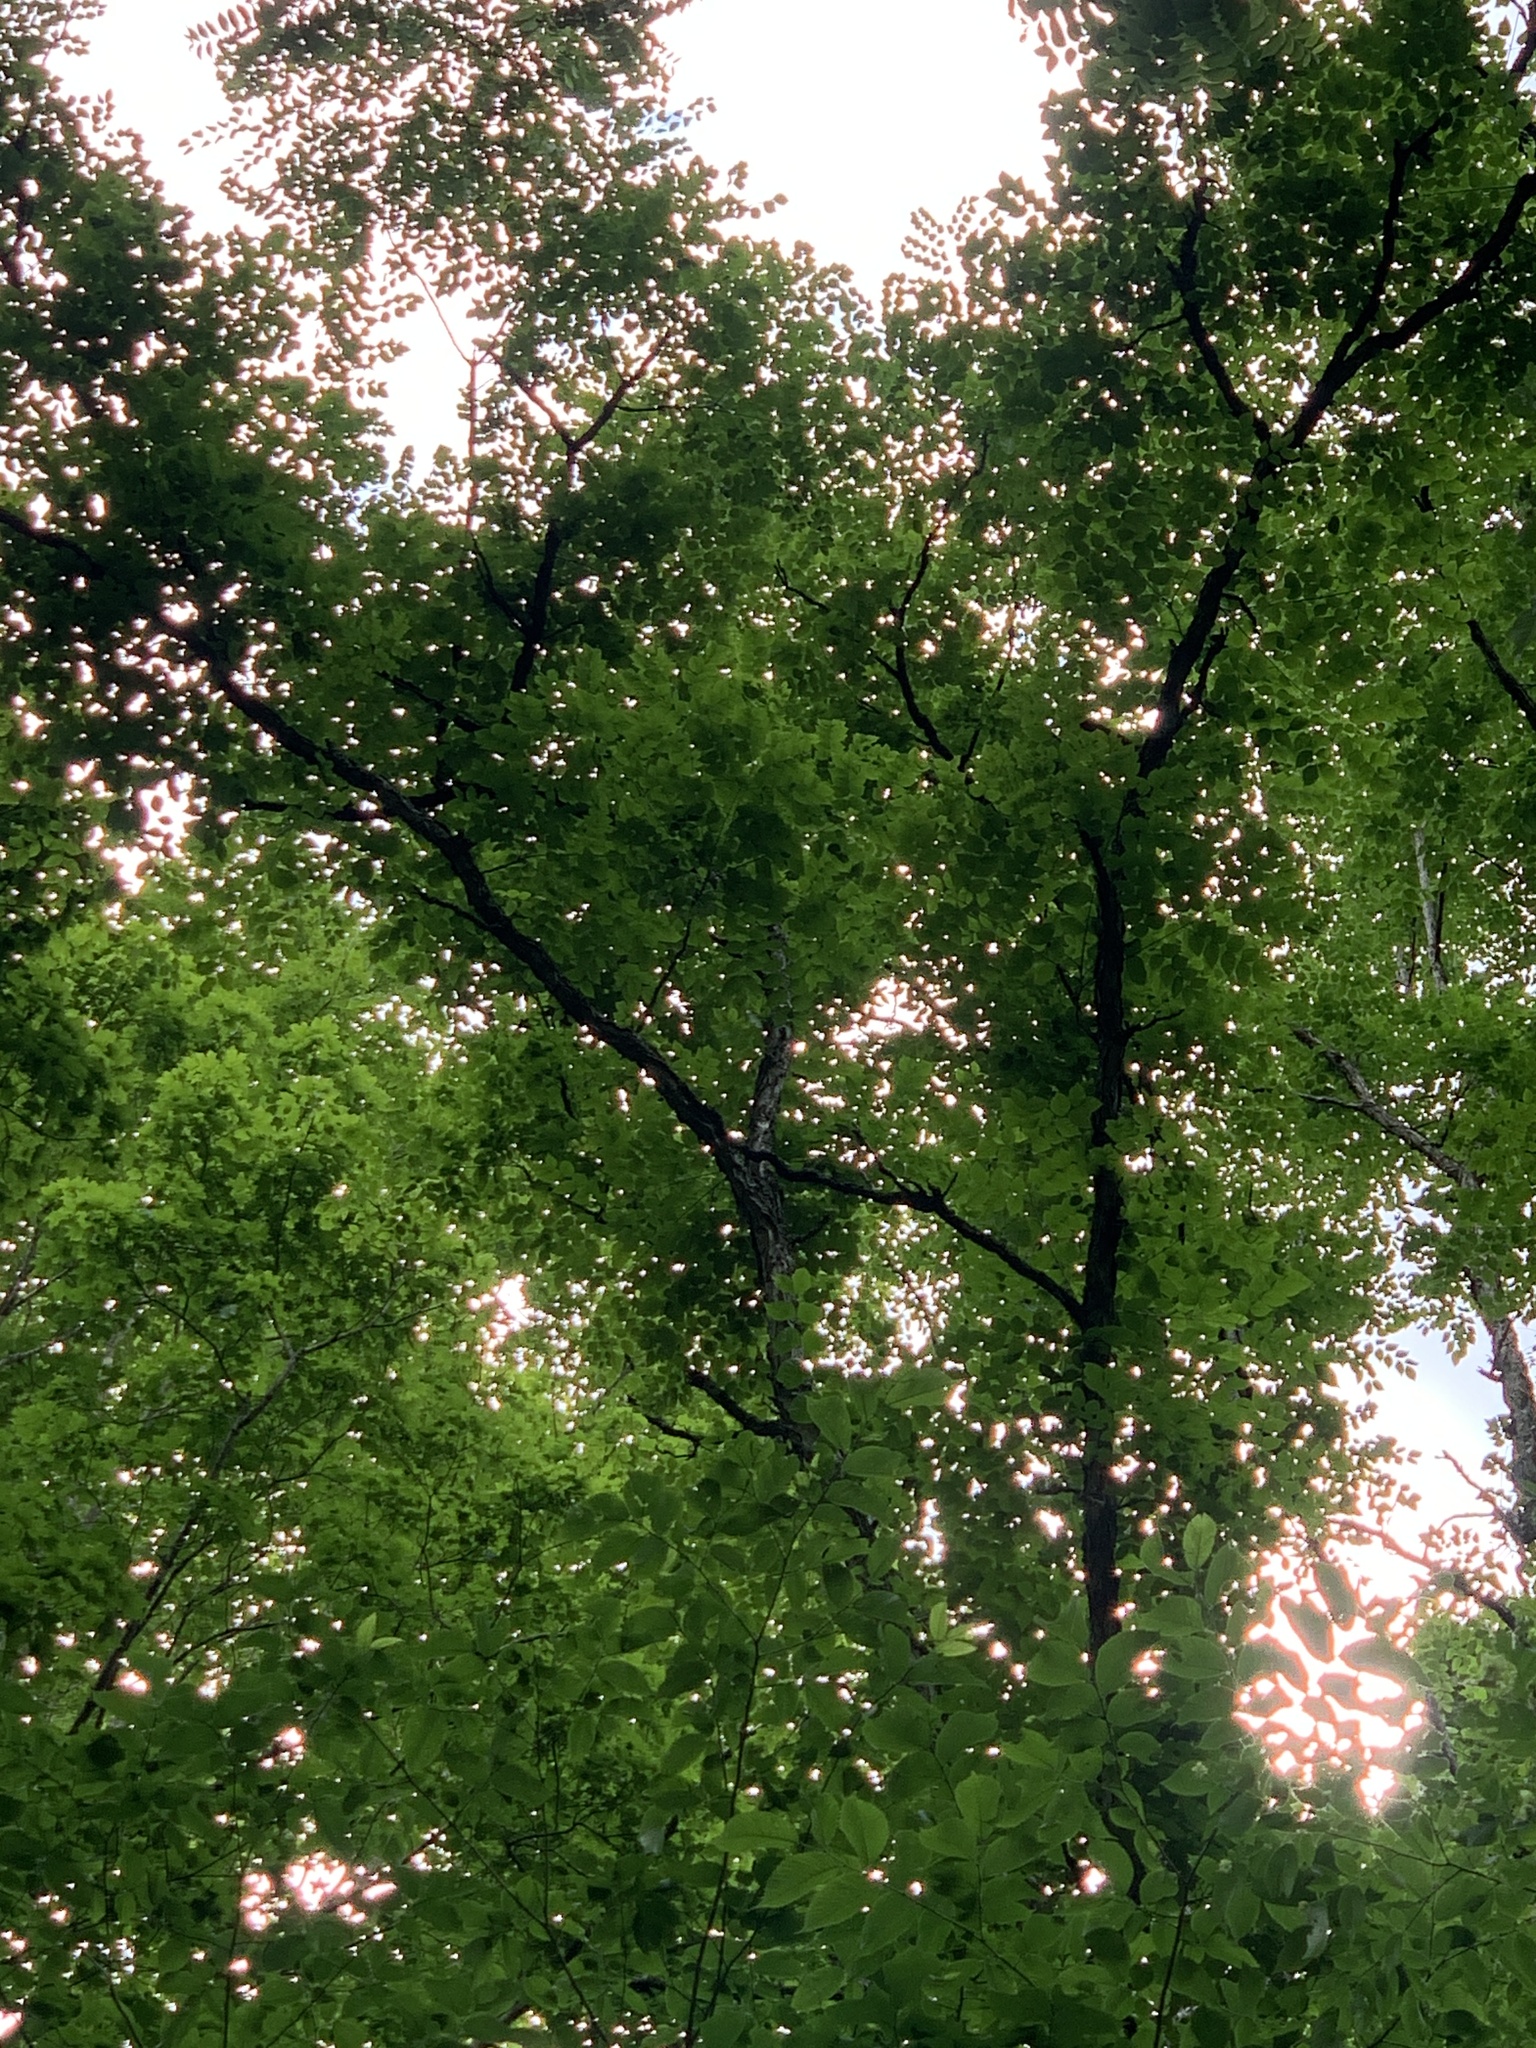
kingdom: Plantae
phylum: Tracheophyta
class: Magnoliopsida
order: Fabales
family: Fabaceae
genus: Gymnocladus
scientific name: Gymnocladus dioicus
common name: Kentucky coffee-tree
